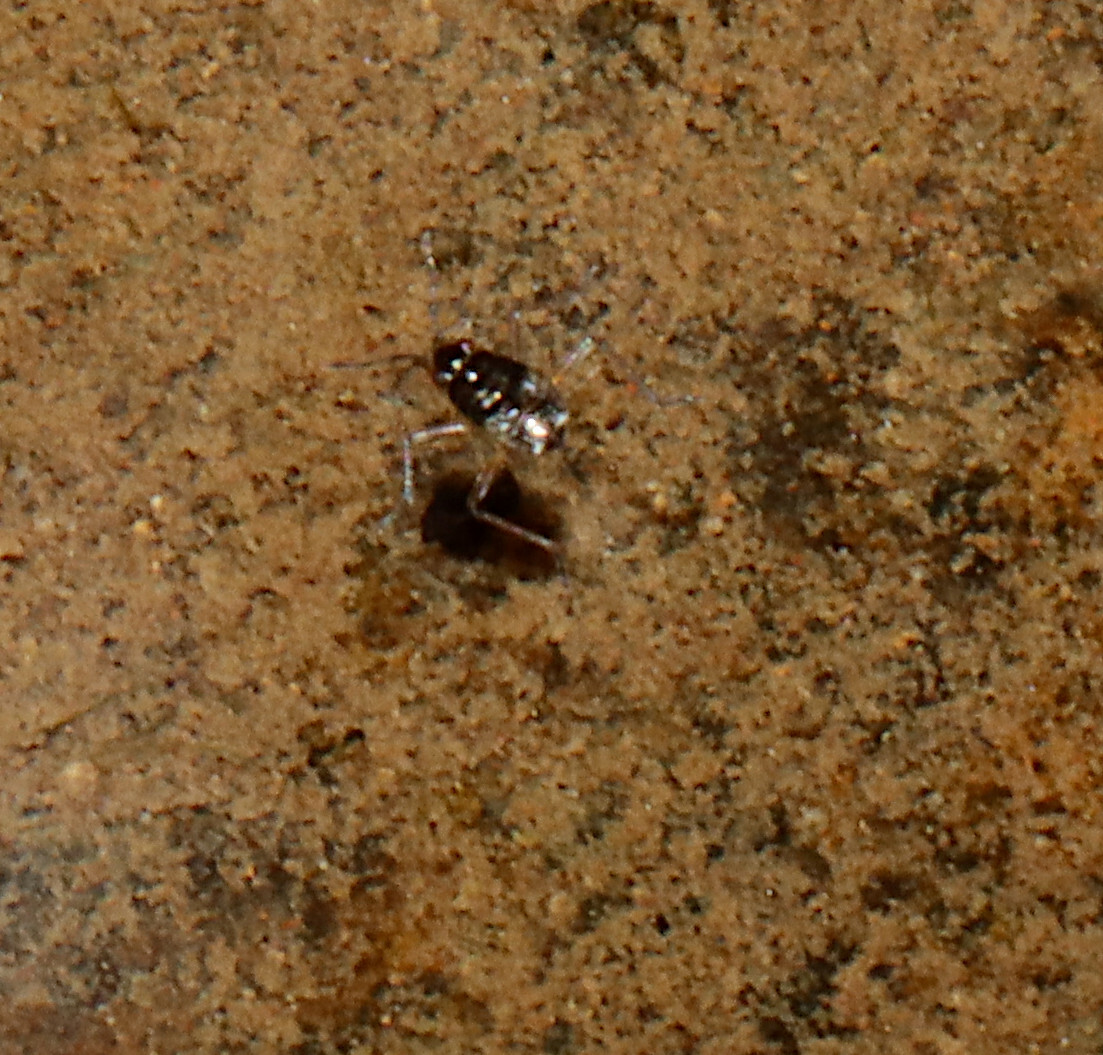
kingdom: Animalia
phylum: Arthropoda
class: Insecta
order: Hemiptera
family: Veliidae
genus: Microvelia
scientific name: Microvelia
